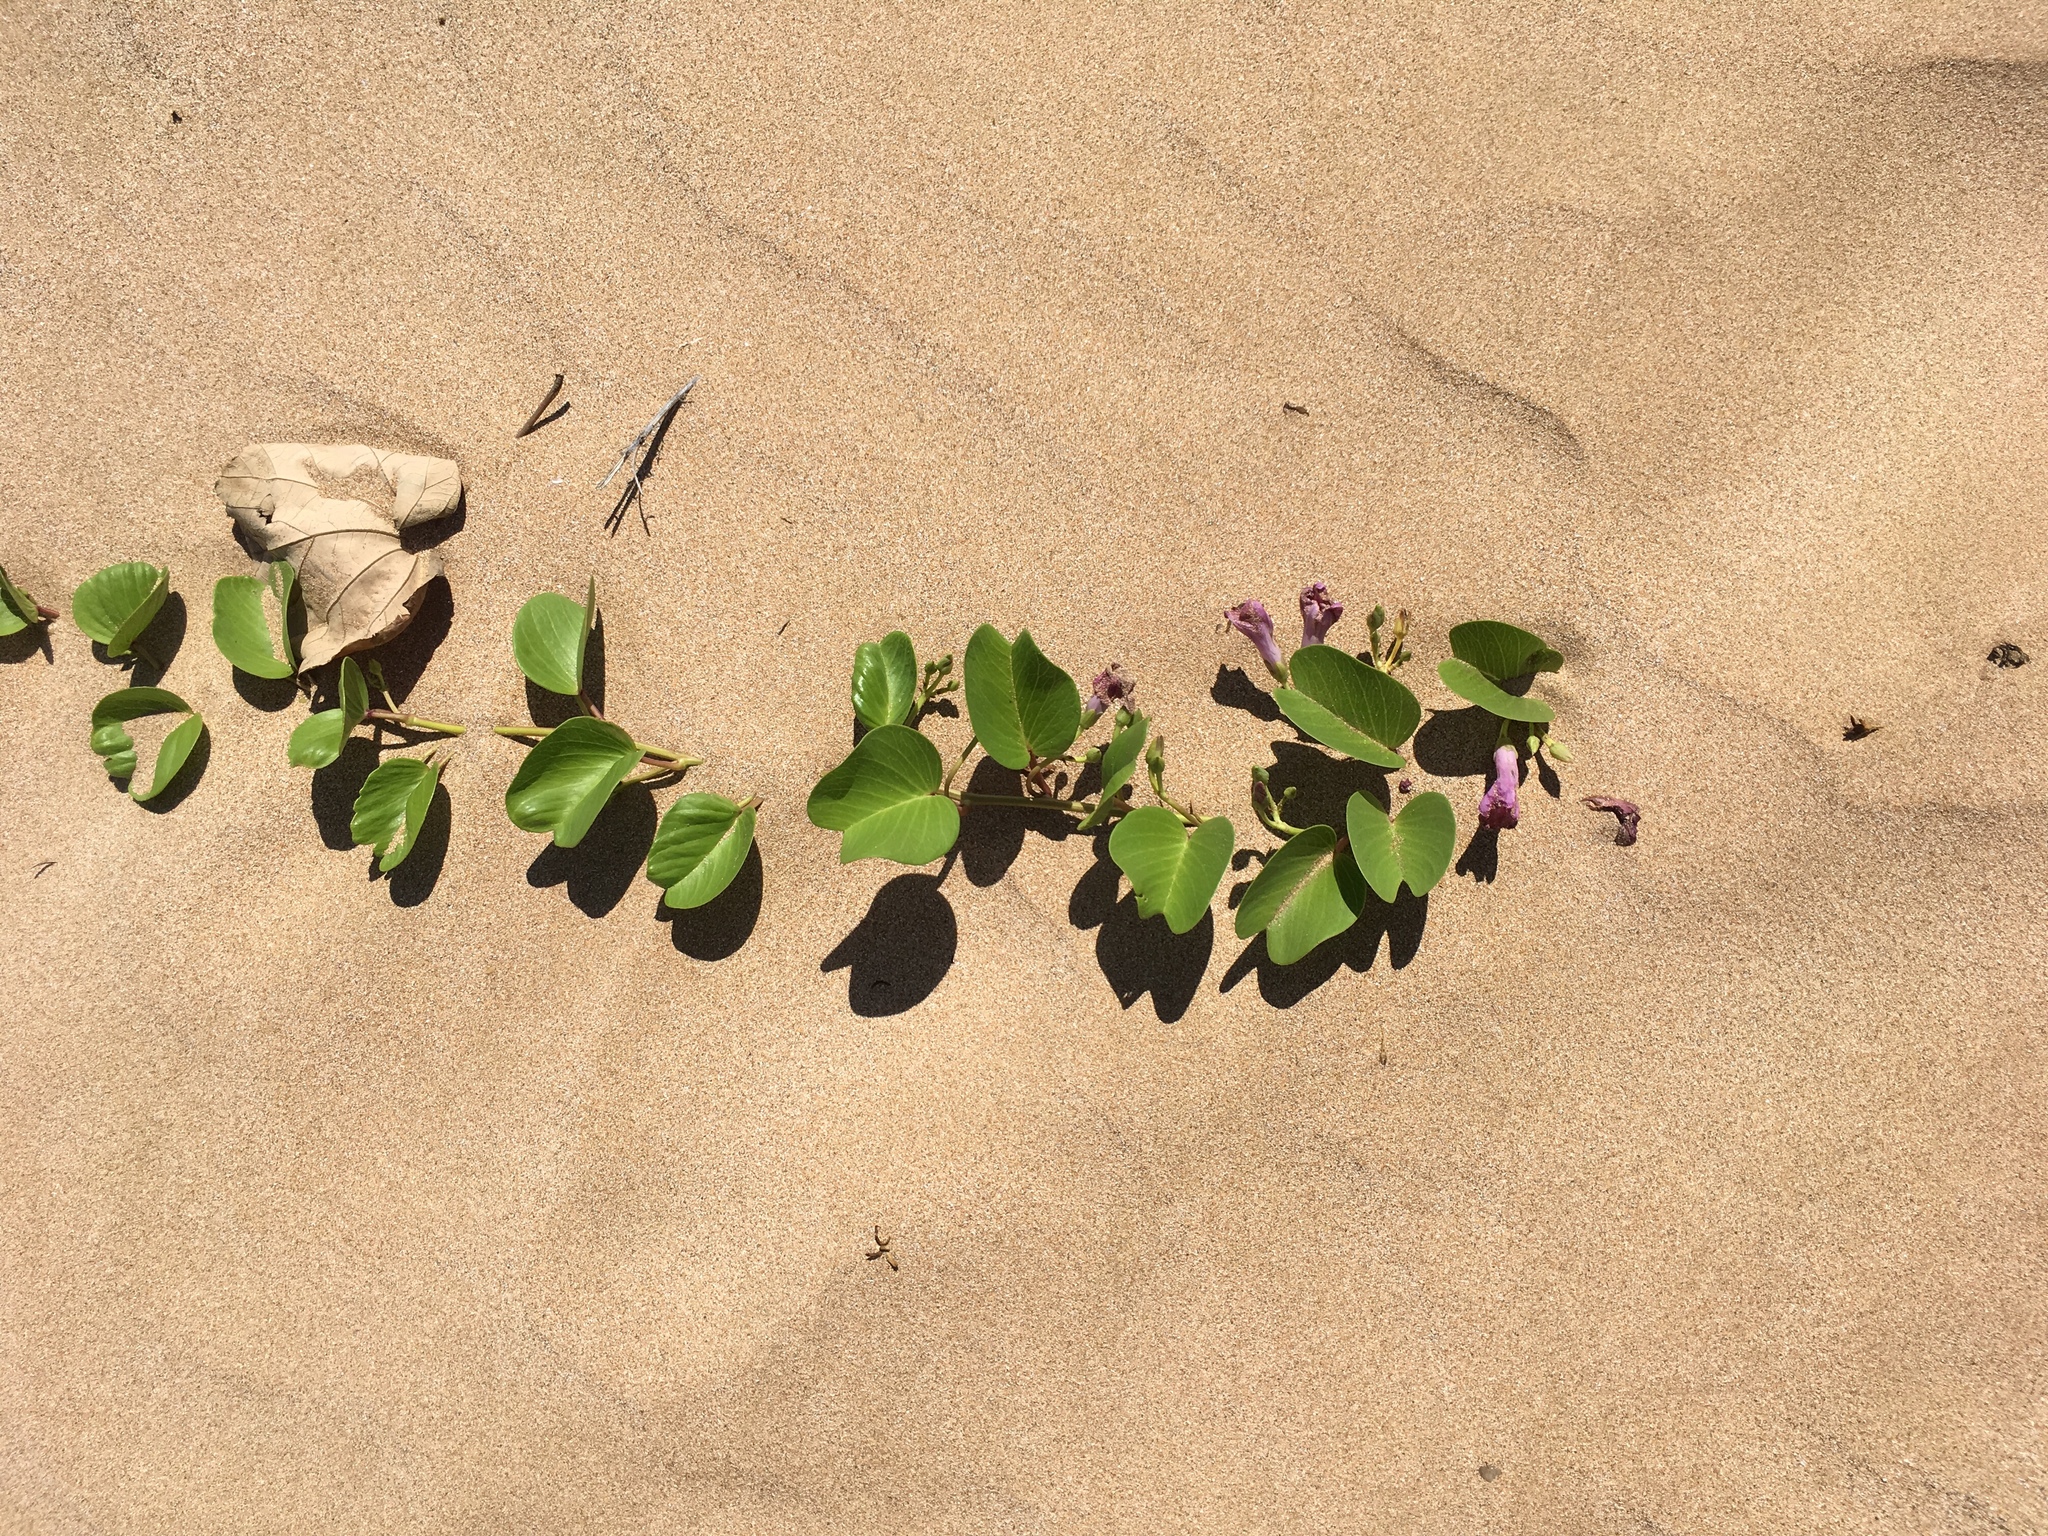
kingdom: Plantae
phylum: Tracheophyta
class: Magnoliopsida
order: Solanales
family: Convolvulaceae
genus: Ipomoea
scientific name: Ipomoea pes-caprae
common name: Beach morning glory
